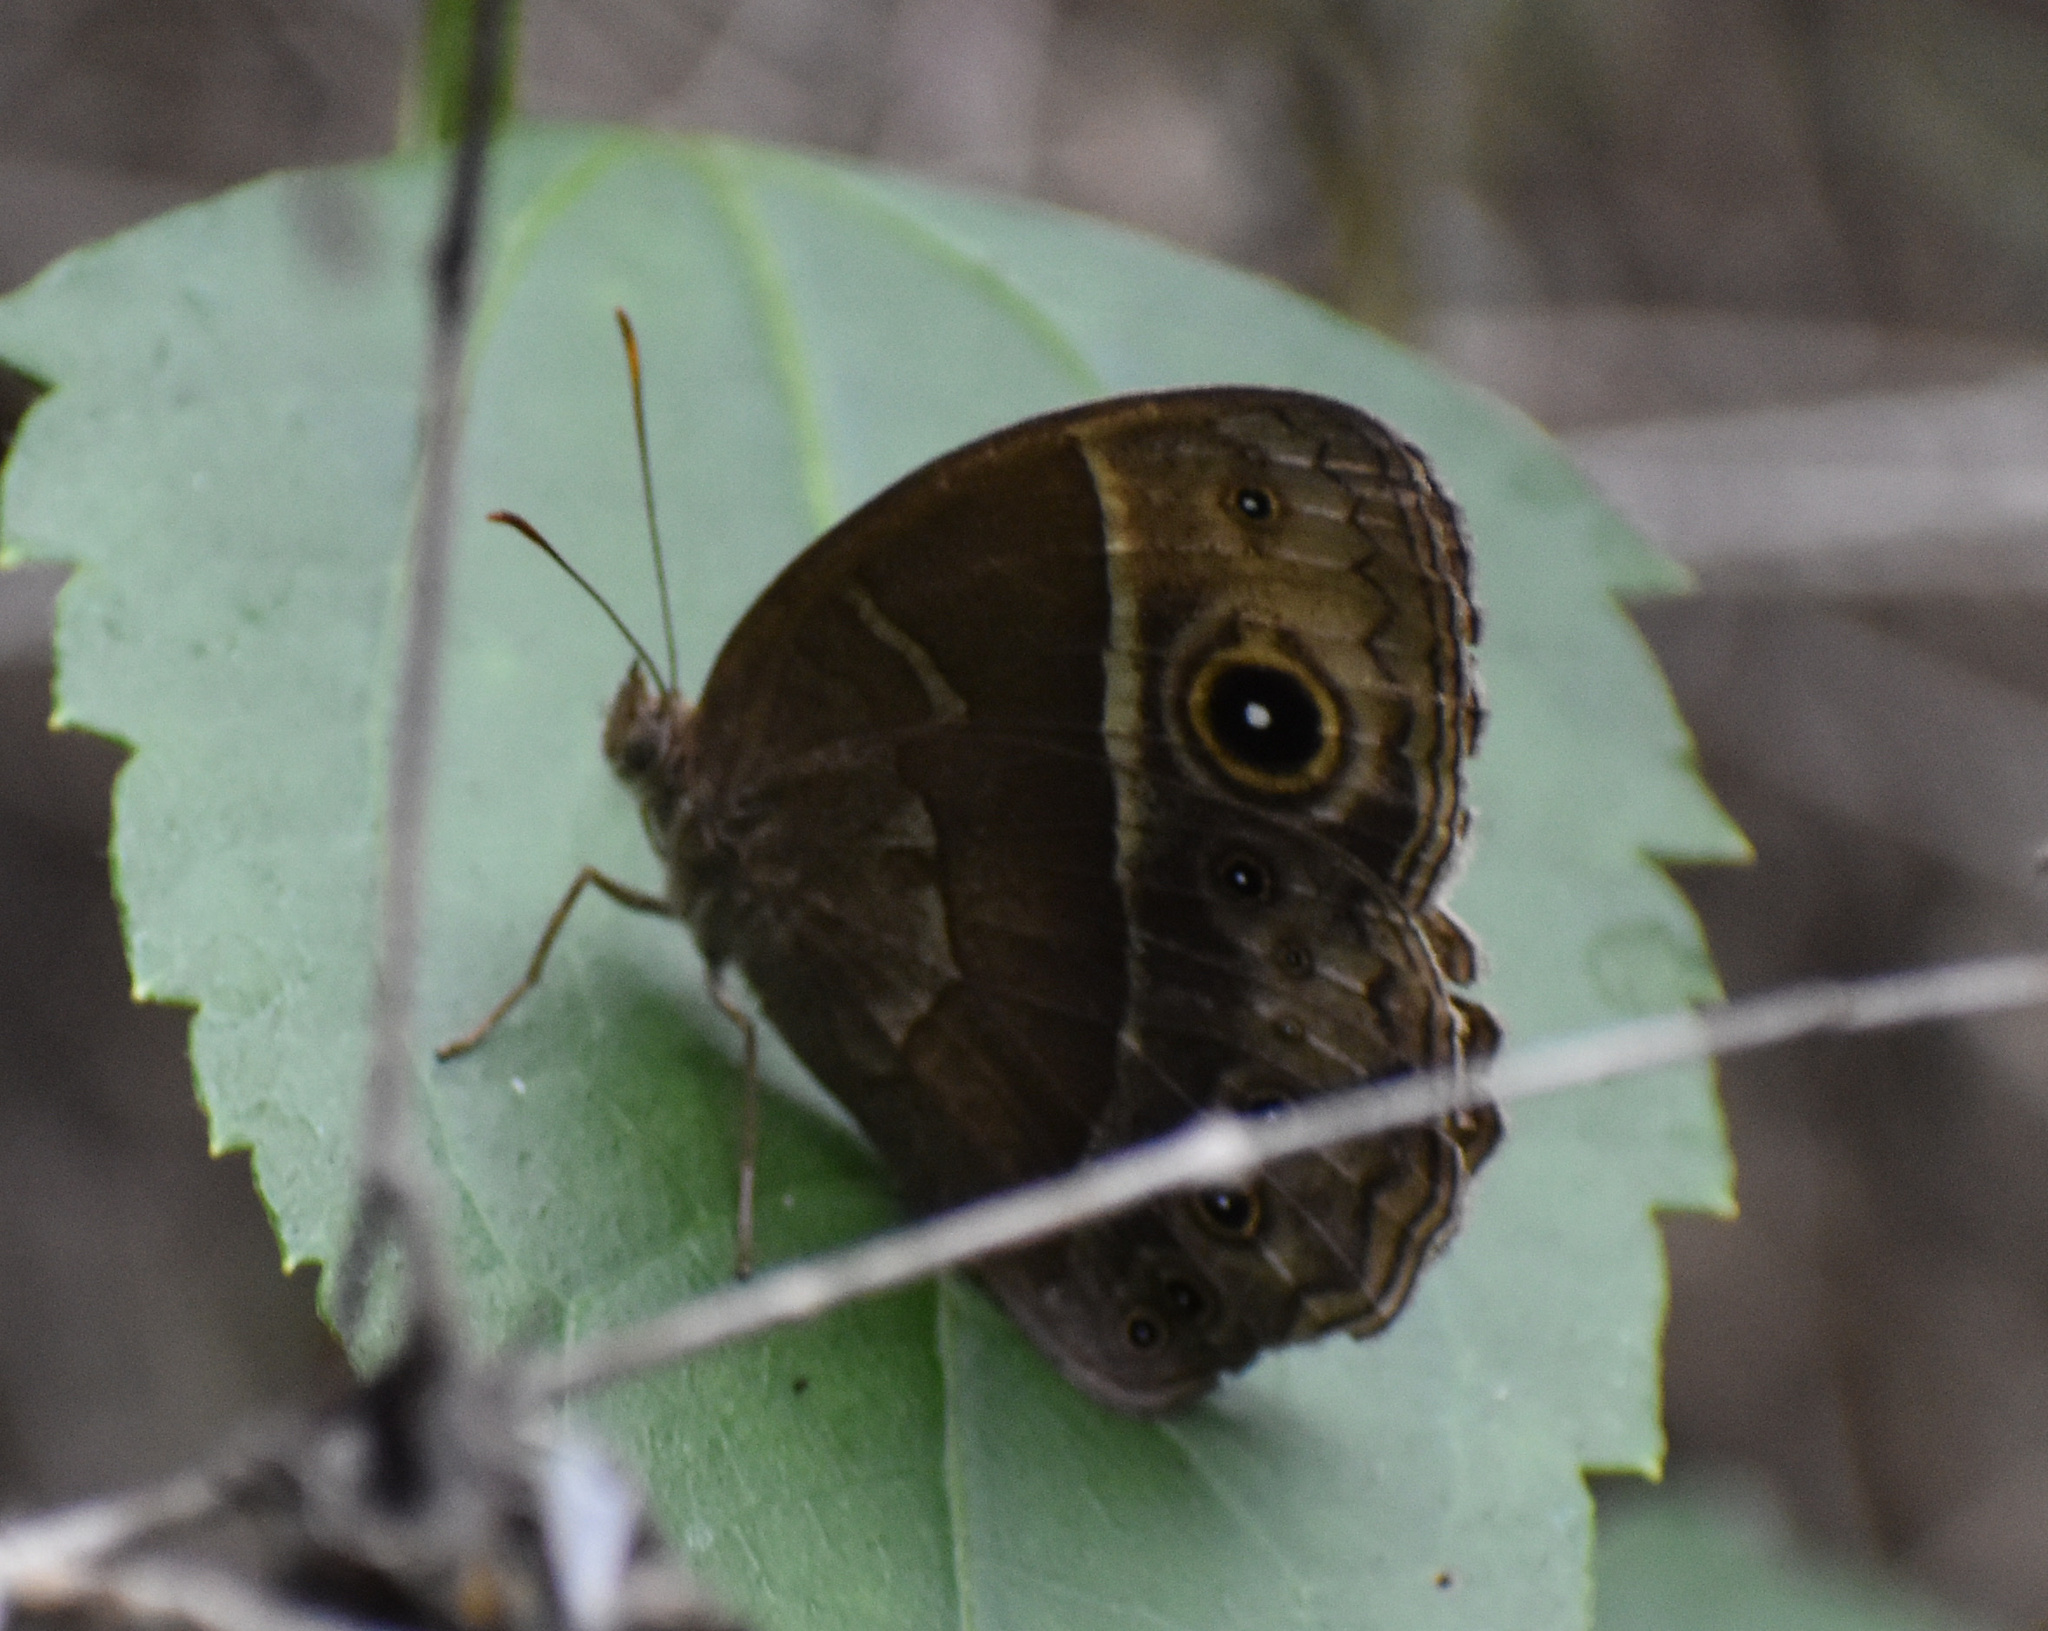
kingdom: Animalia
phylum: Arthropoda
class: Insecta
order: Lepidoptera
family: Nymphalidae
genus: Mycalesis
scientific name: Mycalesis rhacotis
